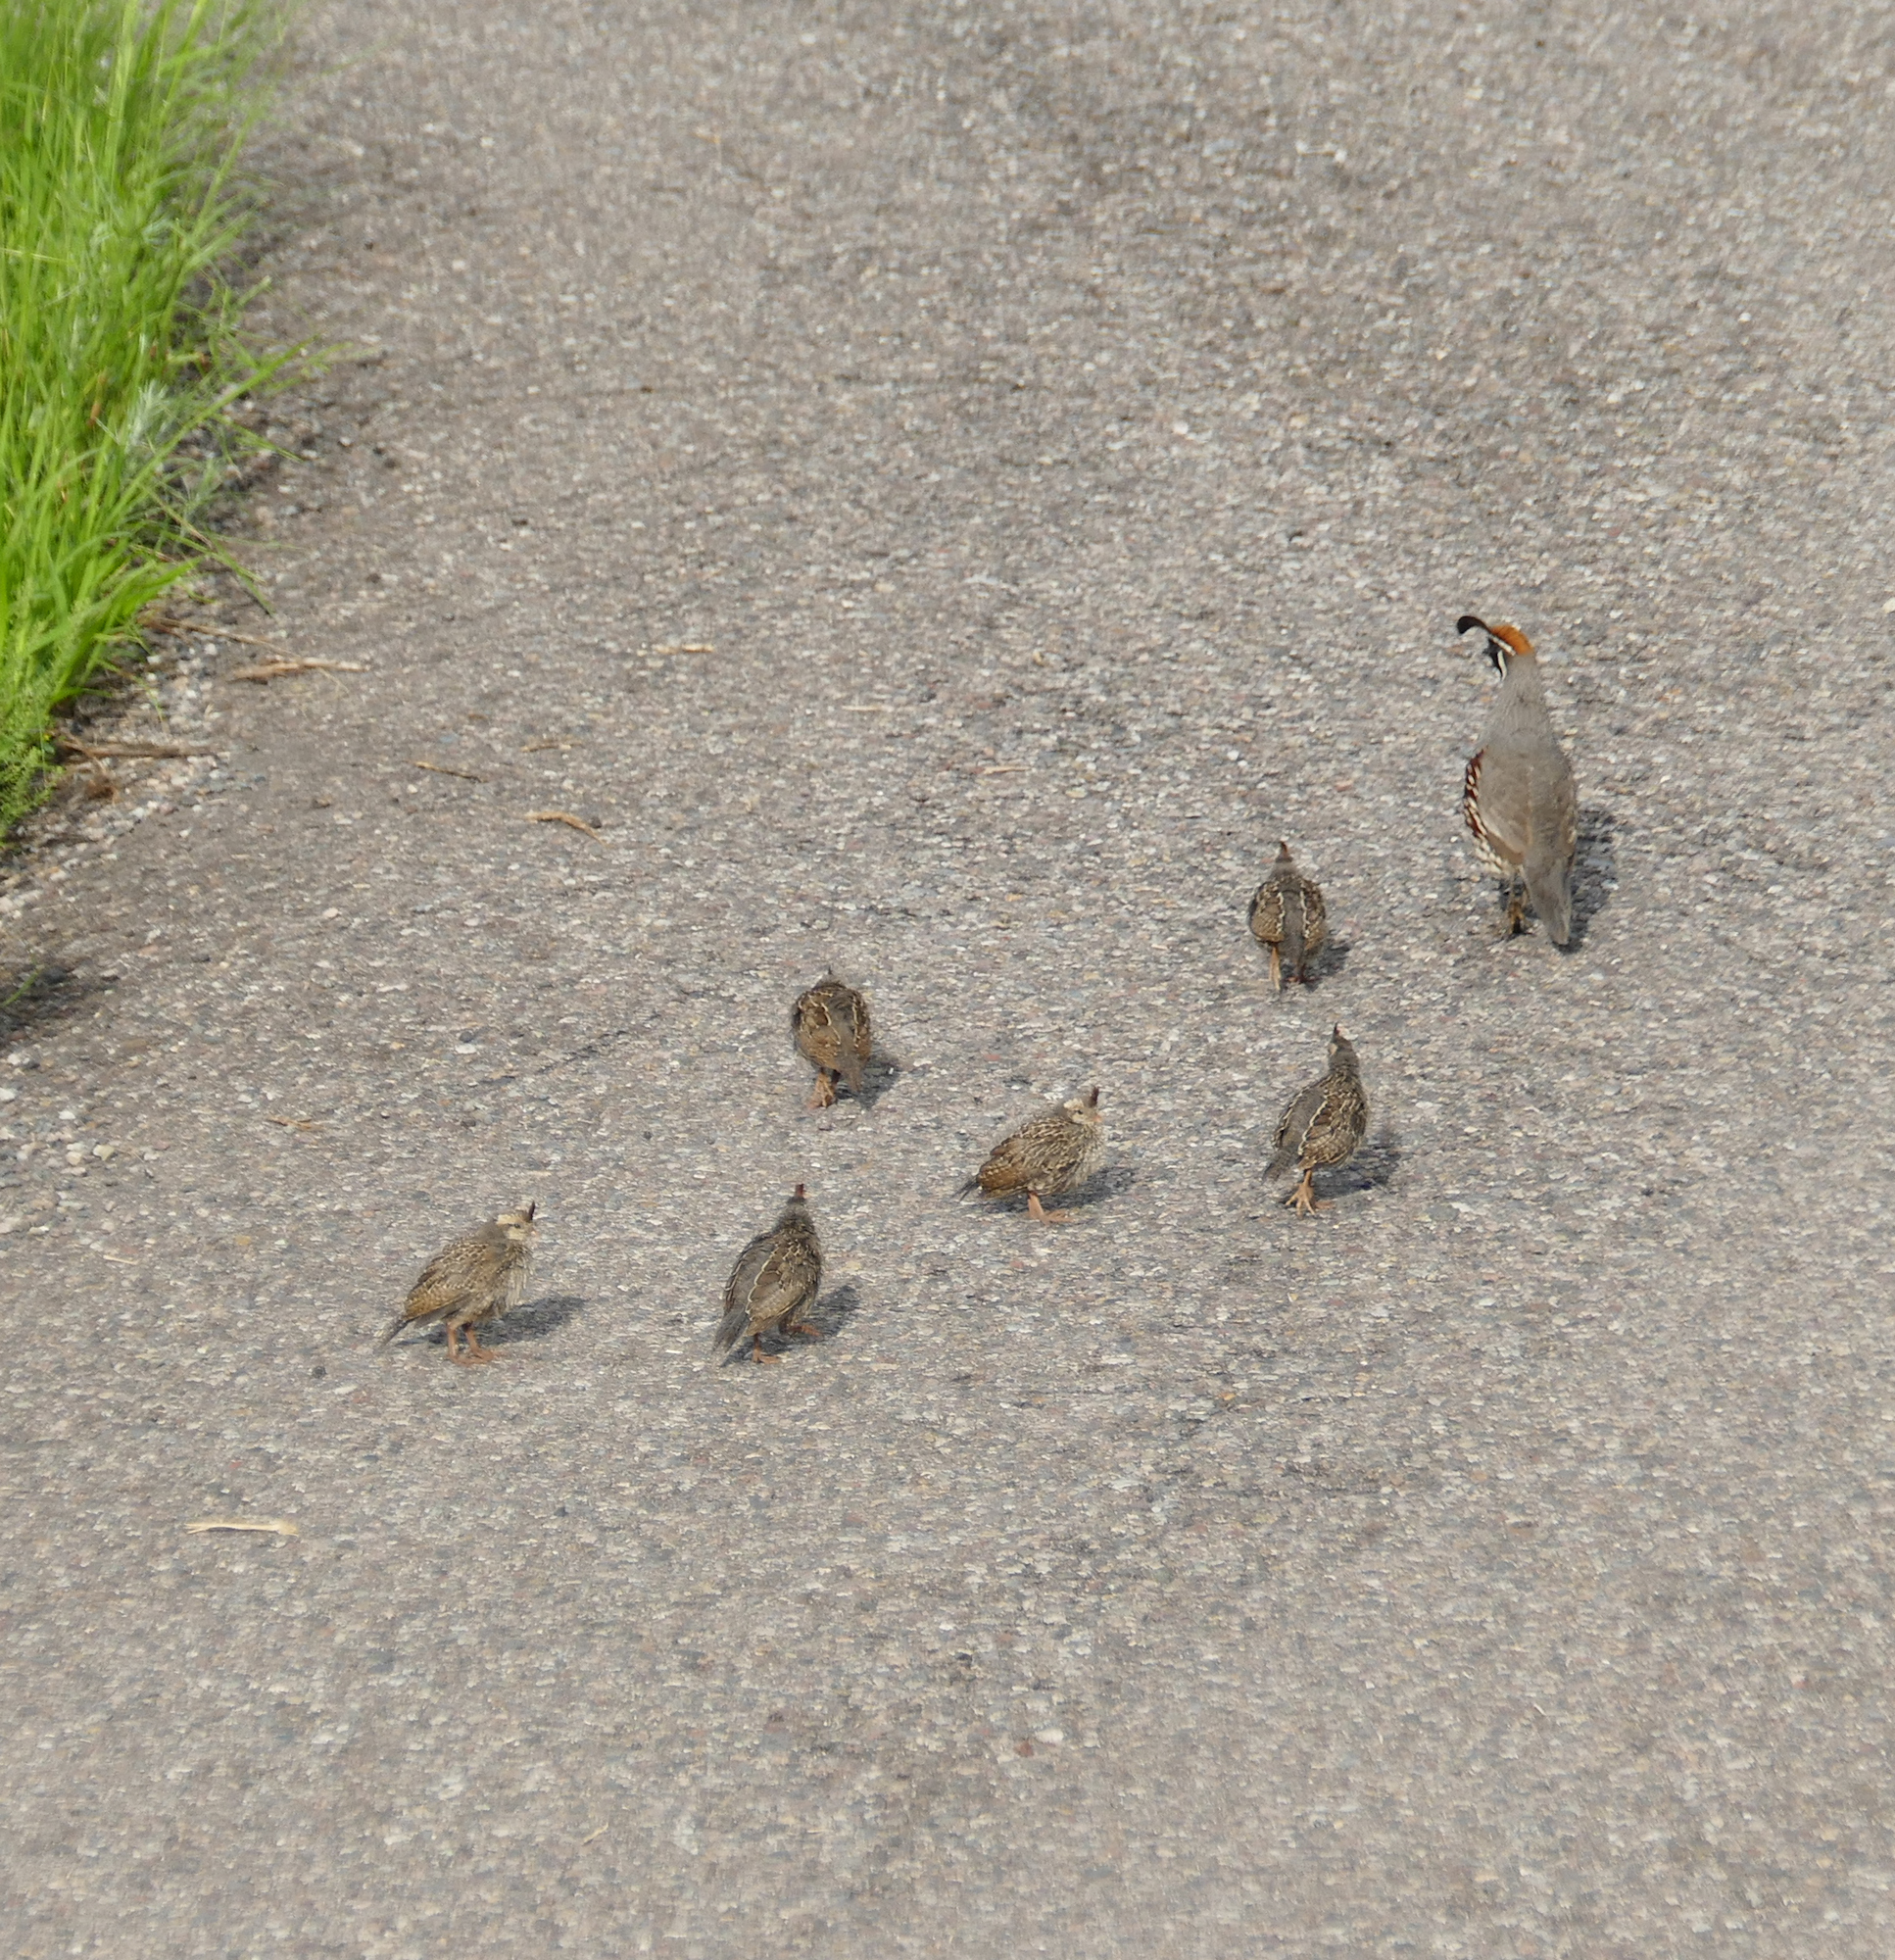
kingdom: Animalia
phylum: Chordata
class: Aves
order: Galliformes
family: Odontophoridae
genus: Callipepla
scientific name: Callipepla gambelii
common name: Gambel's quail
